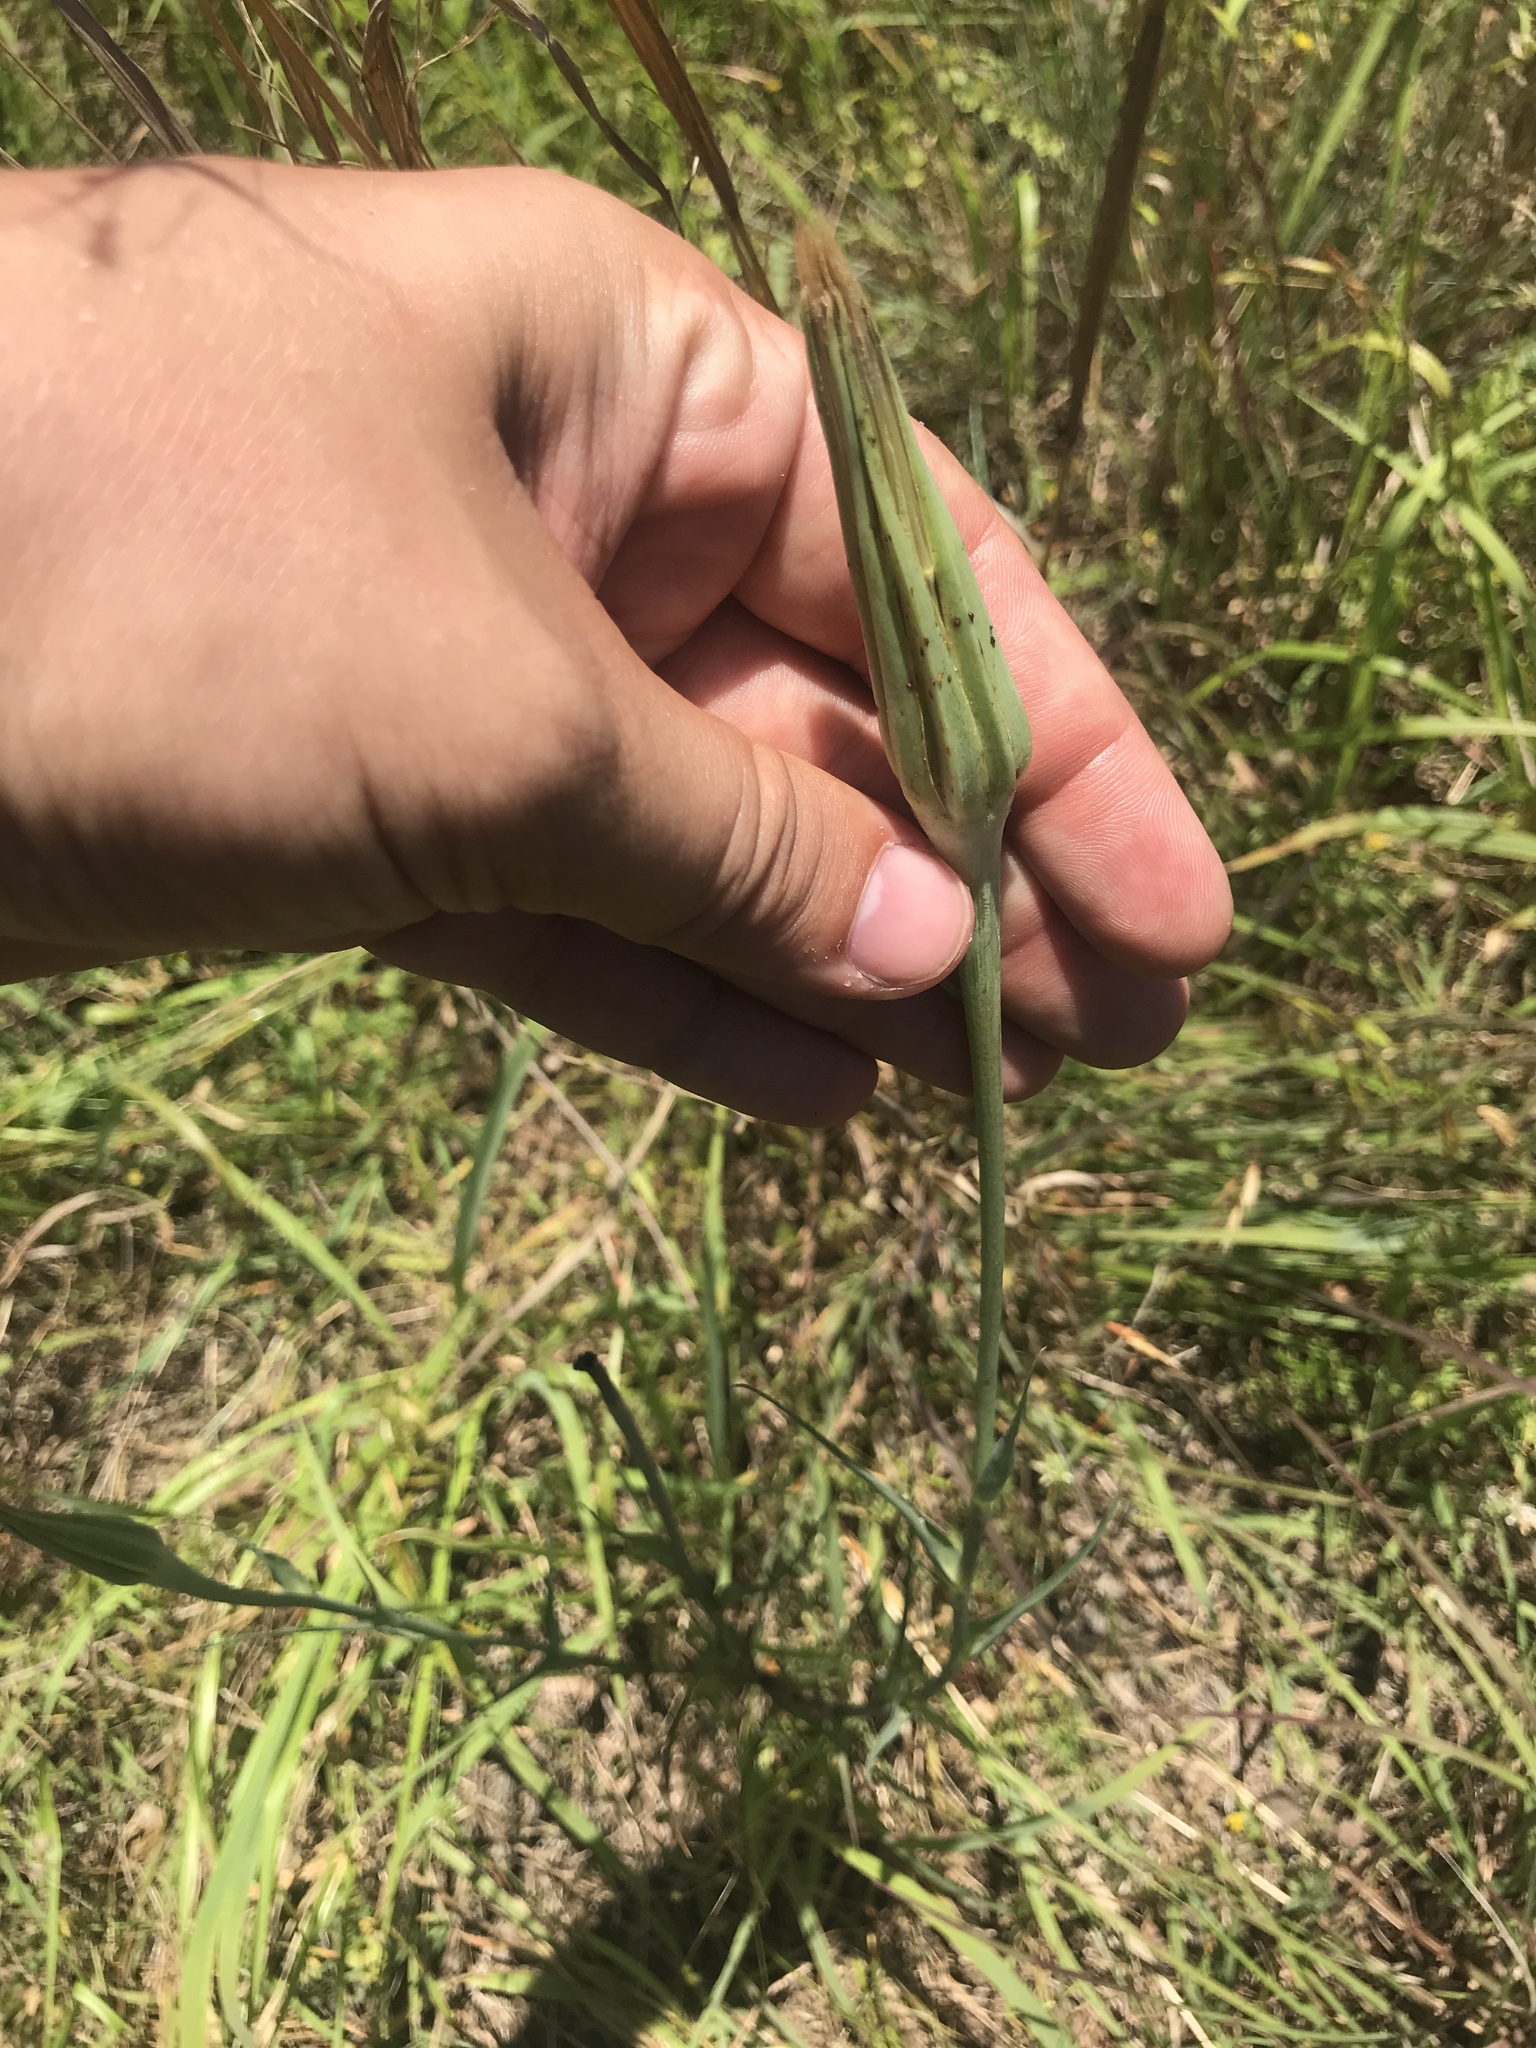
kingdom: Plantae
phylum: Tracheophyta
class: Magnoliopsida
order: Asterales
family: Asteraceae
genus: Tragopogon
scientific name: Tragopogon dubius
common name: Yellow salsify
